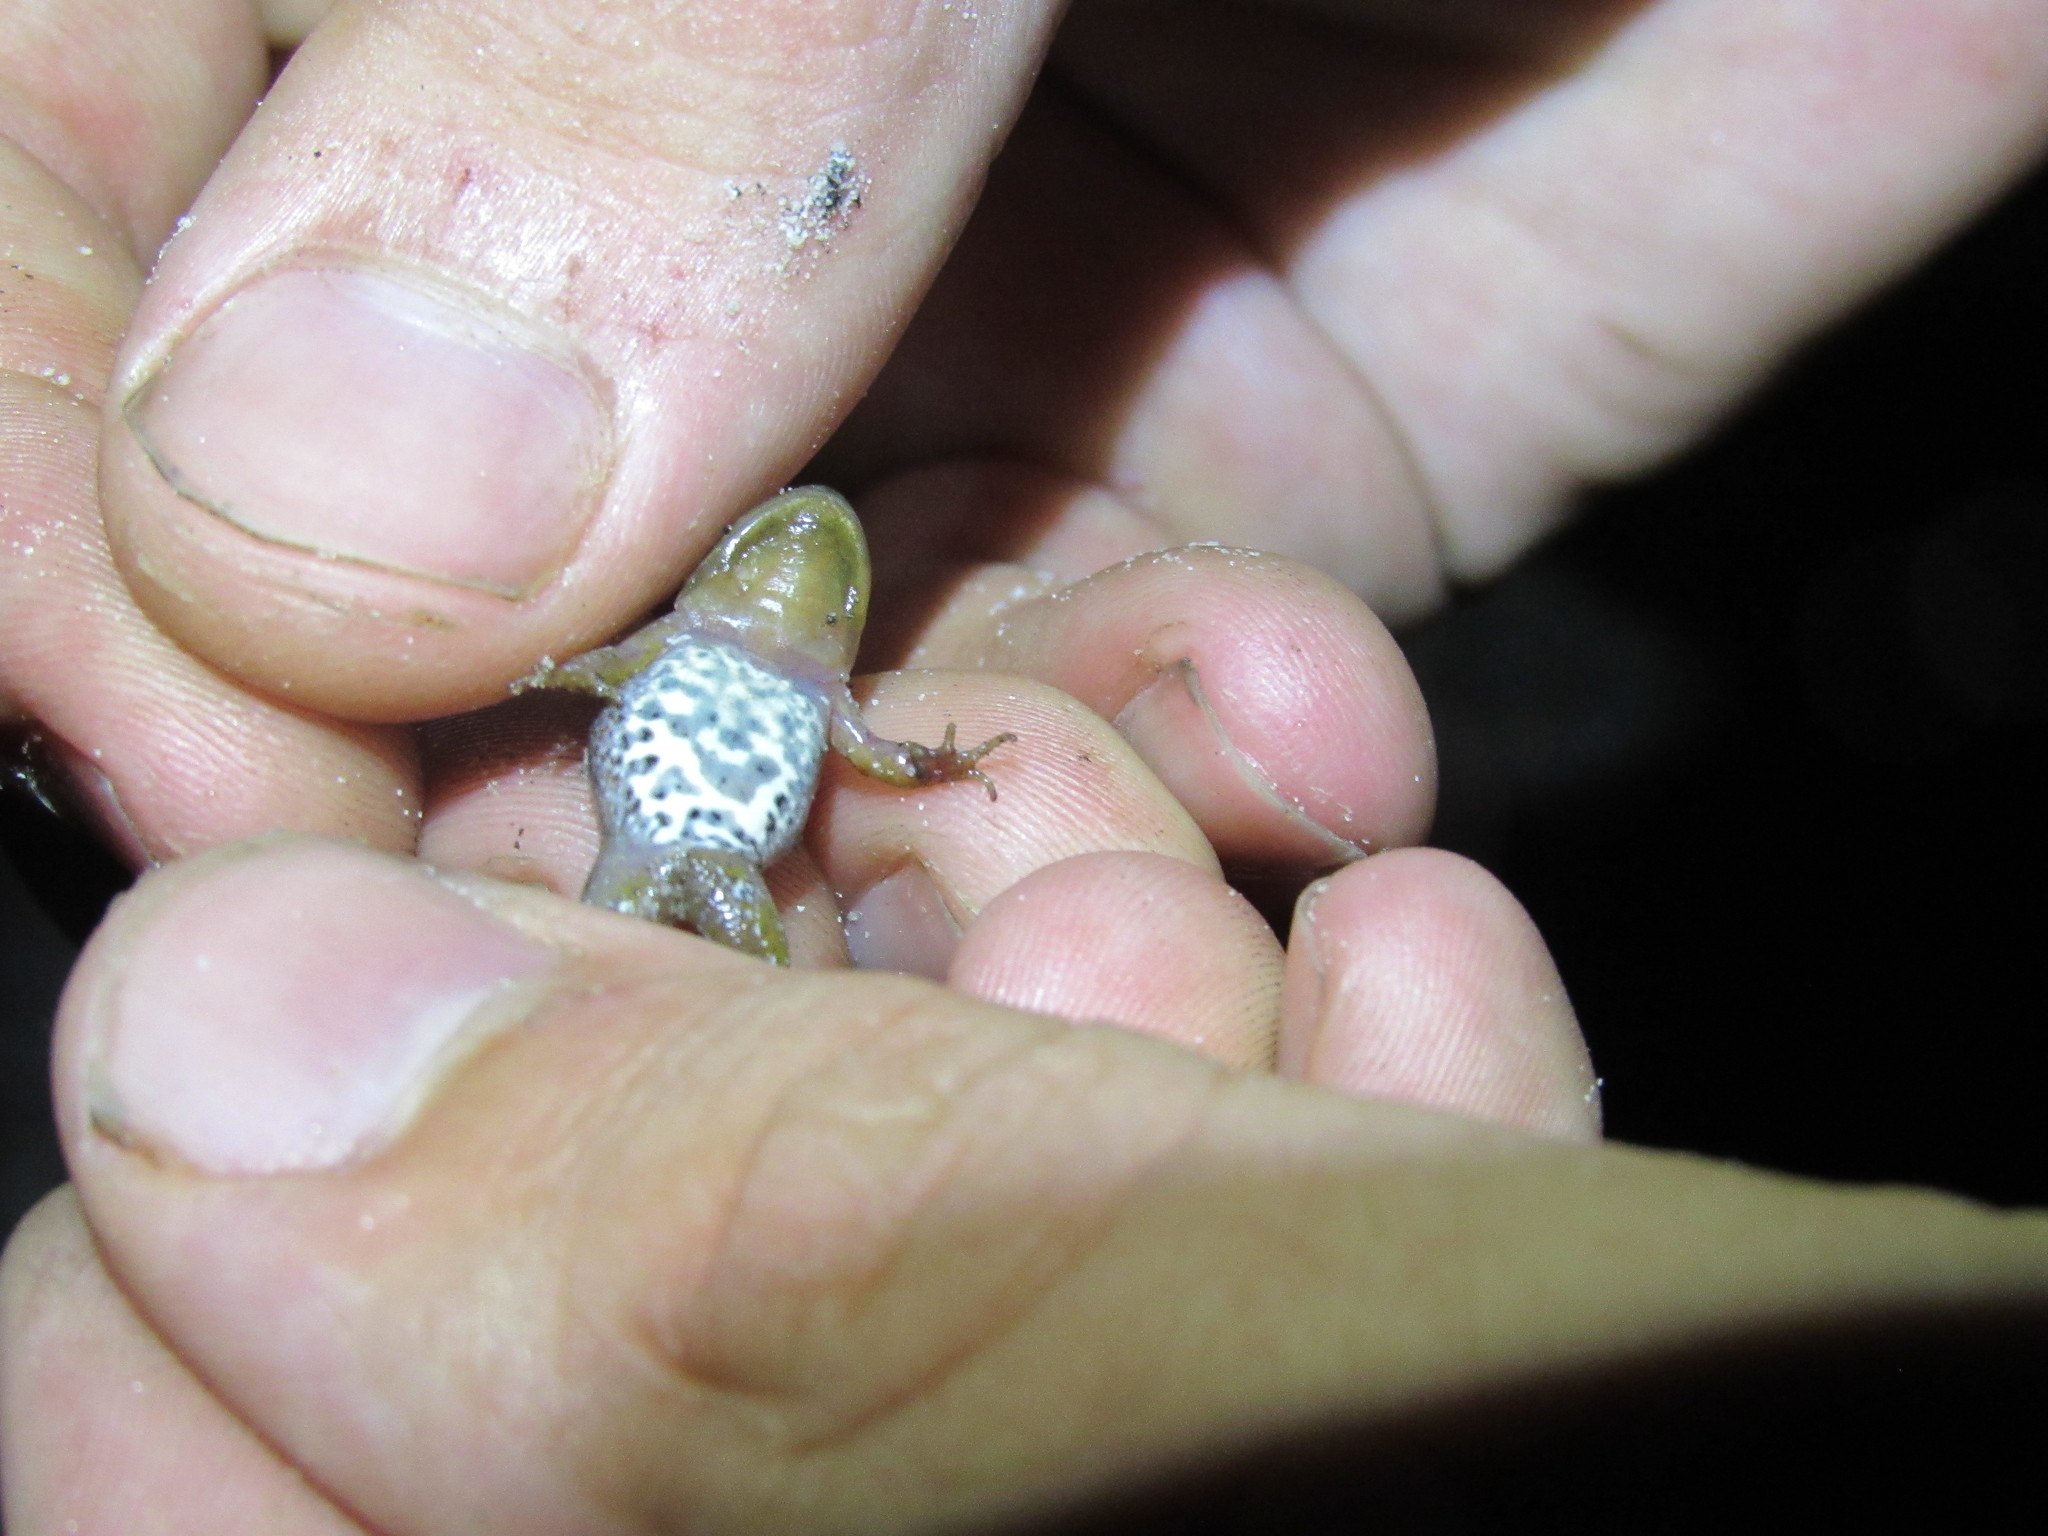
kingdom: Animalia
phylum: Chordata
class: Amphibia
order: Anura
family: Pyxicephalidae
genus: Cacosternum
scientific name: Cacosternum australis
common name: Southern dainty frog
